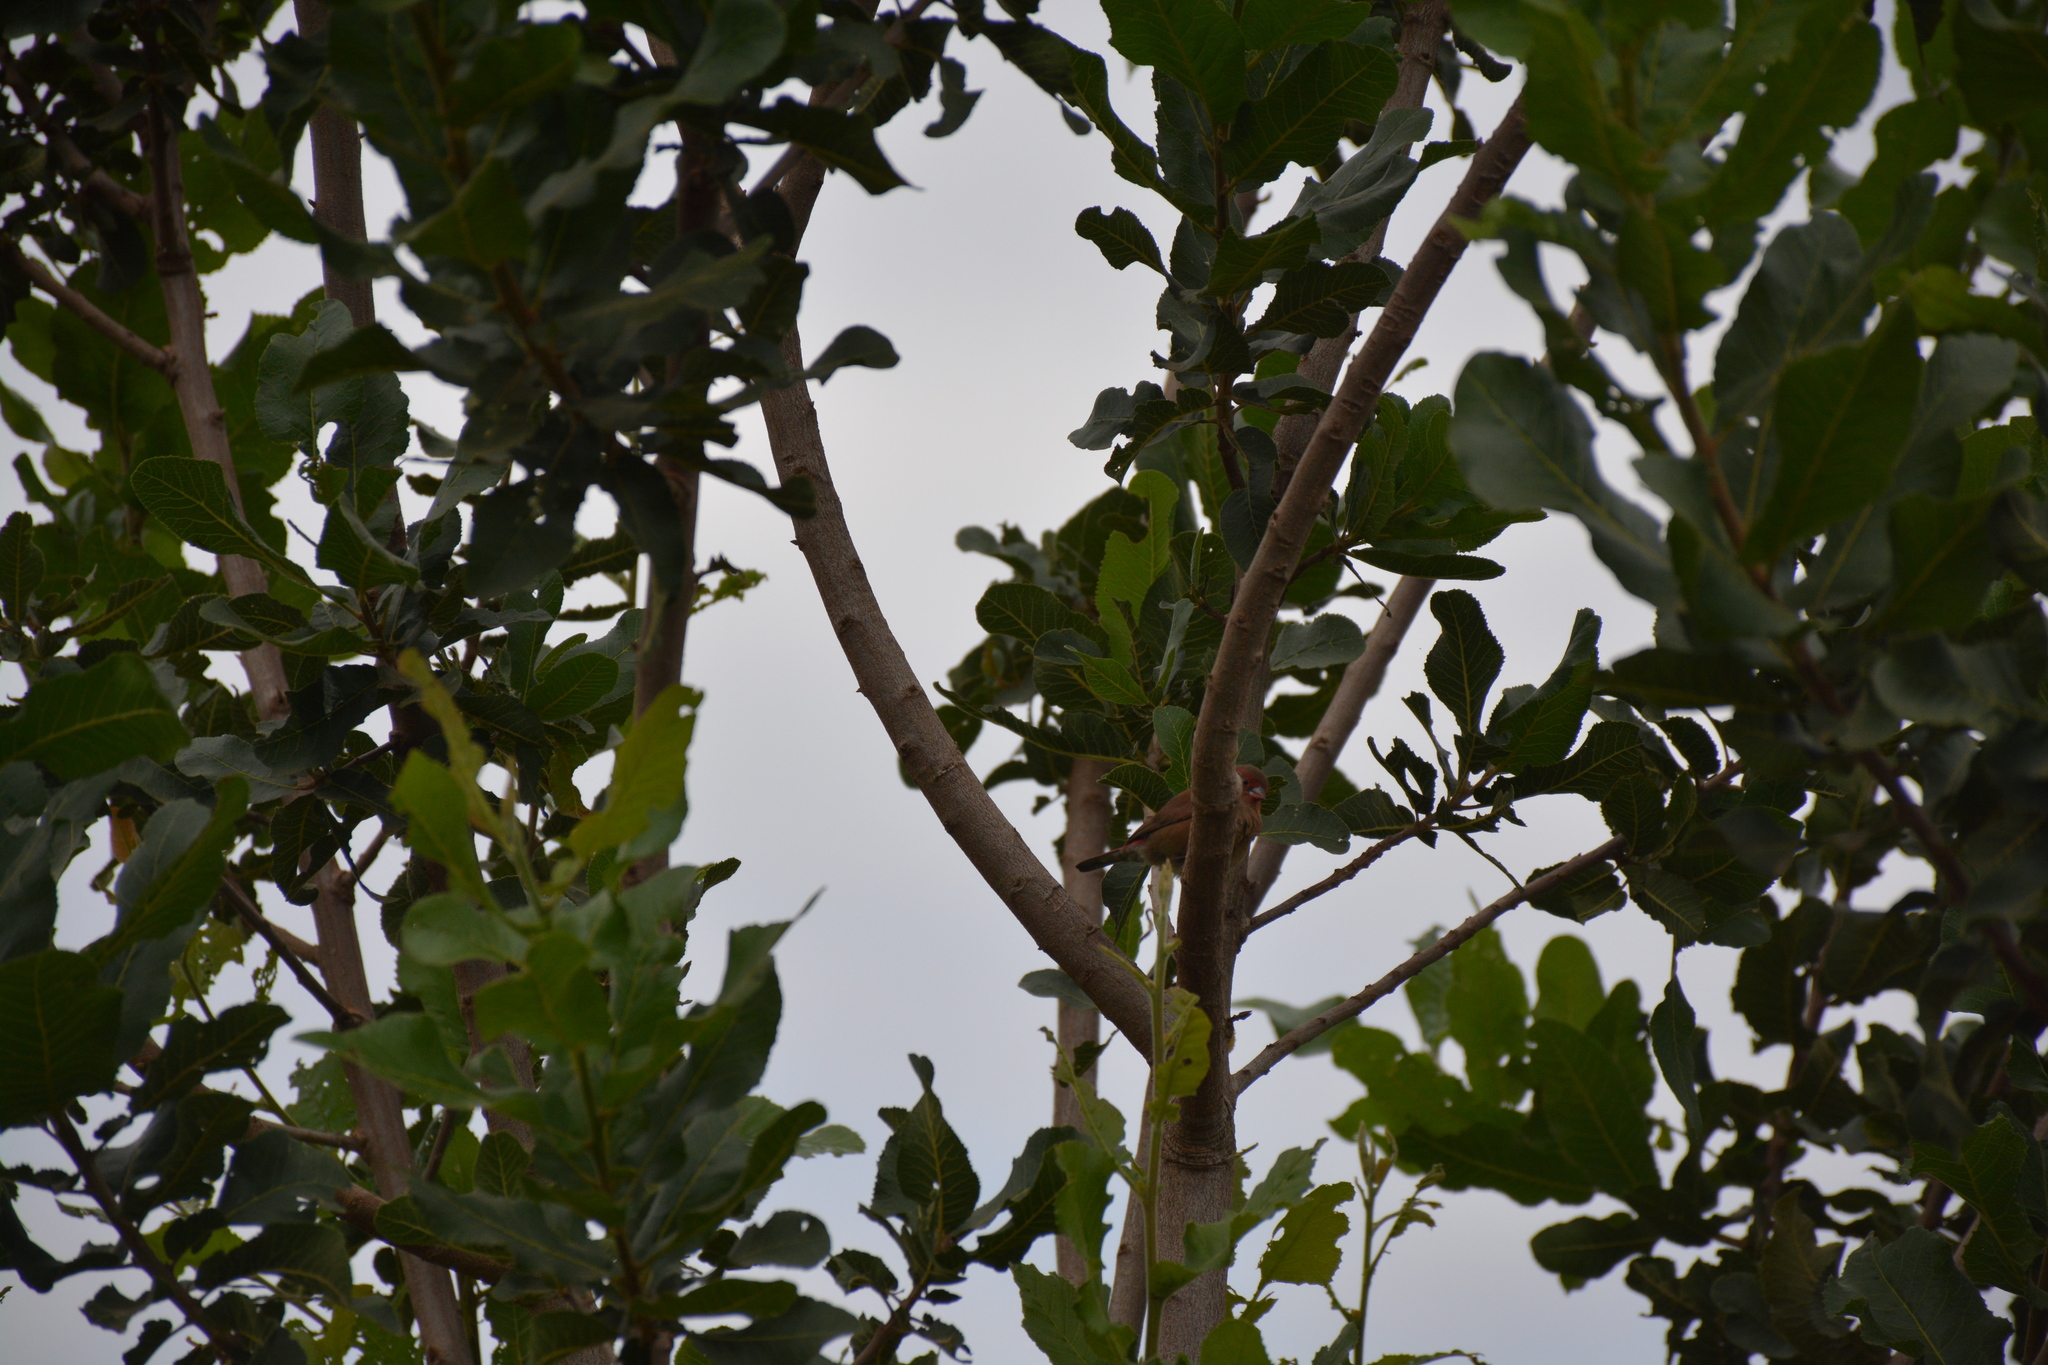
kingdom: Animalia
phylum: Chordata
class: Aves
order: Passeriformes
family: Estrildidae
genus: Lagonosticta
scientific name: Lagonosticta senegala
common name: Red-billed firefinch
